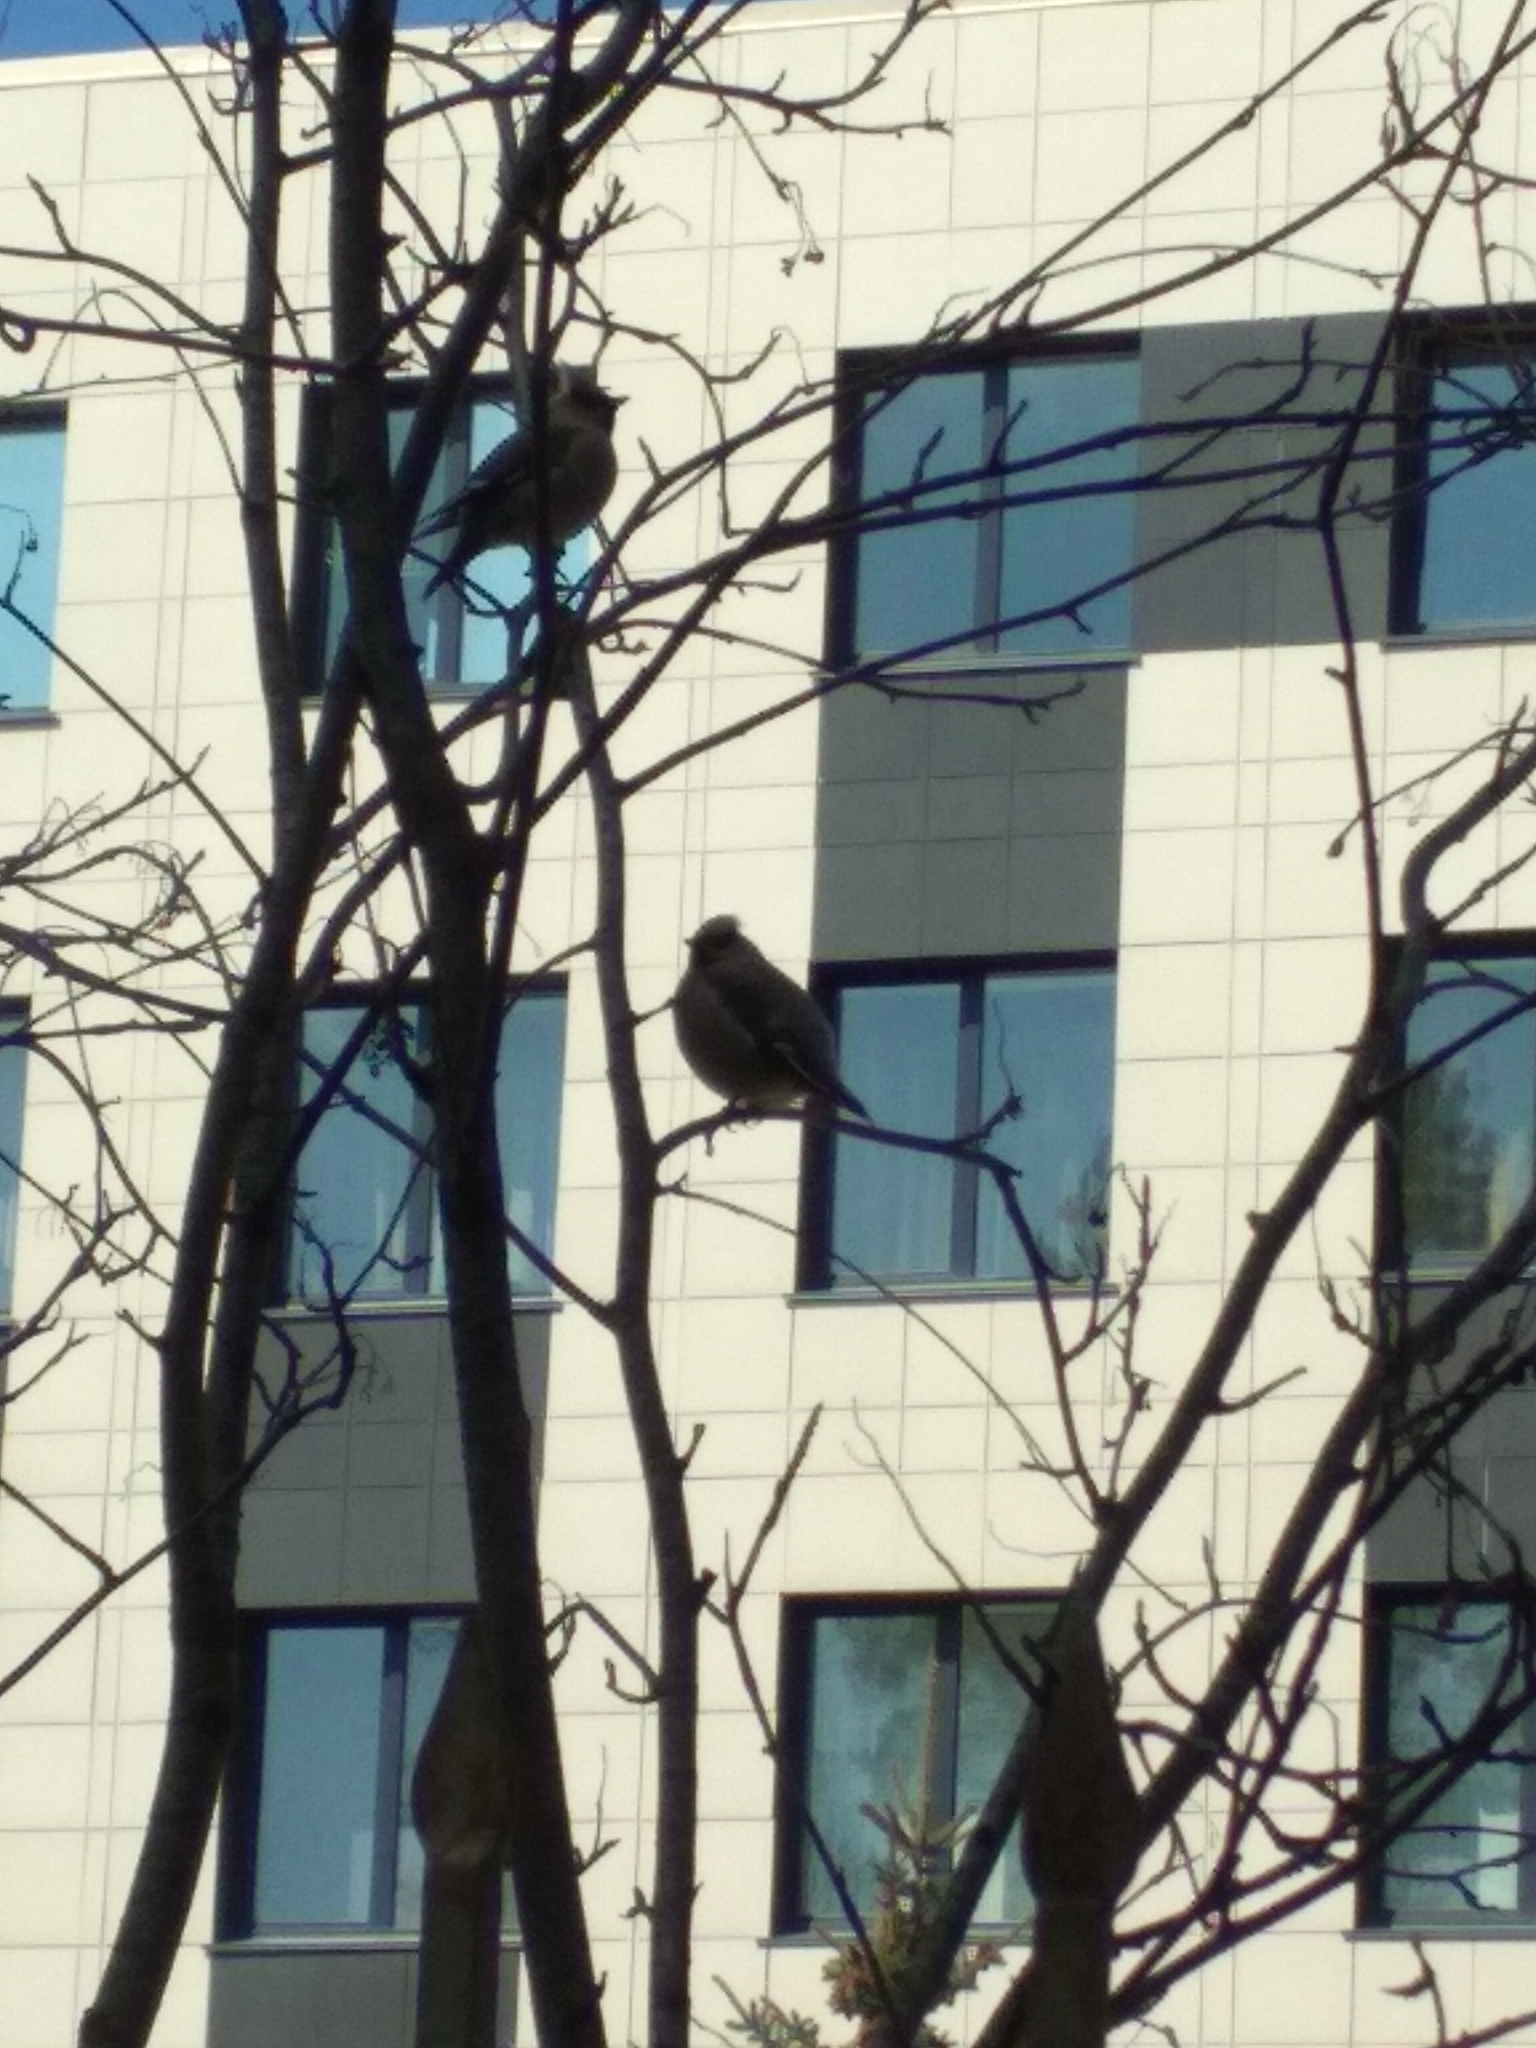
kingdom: Animalia
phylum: Chordata
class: Aves
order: Passeriformes
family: Bombycillidae
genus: Bombycilla
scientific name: Bombycilla garrulus
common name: Bohemian waxwing
